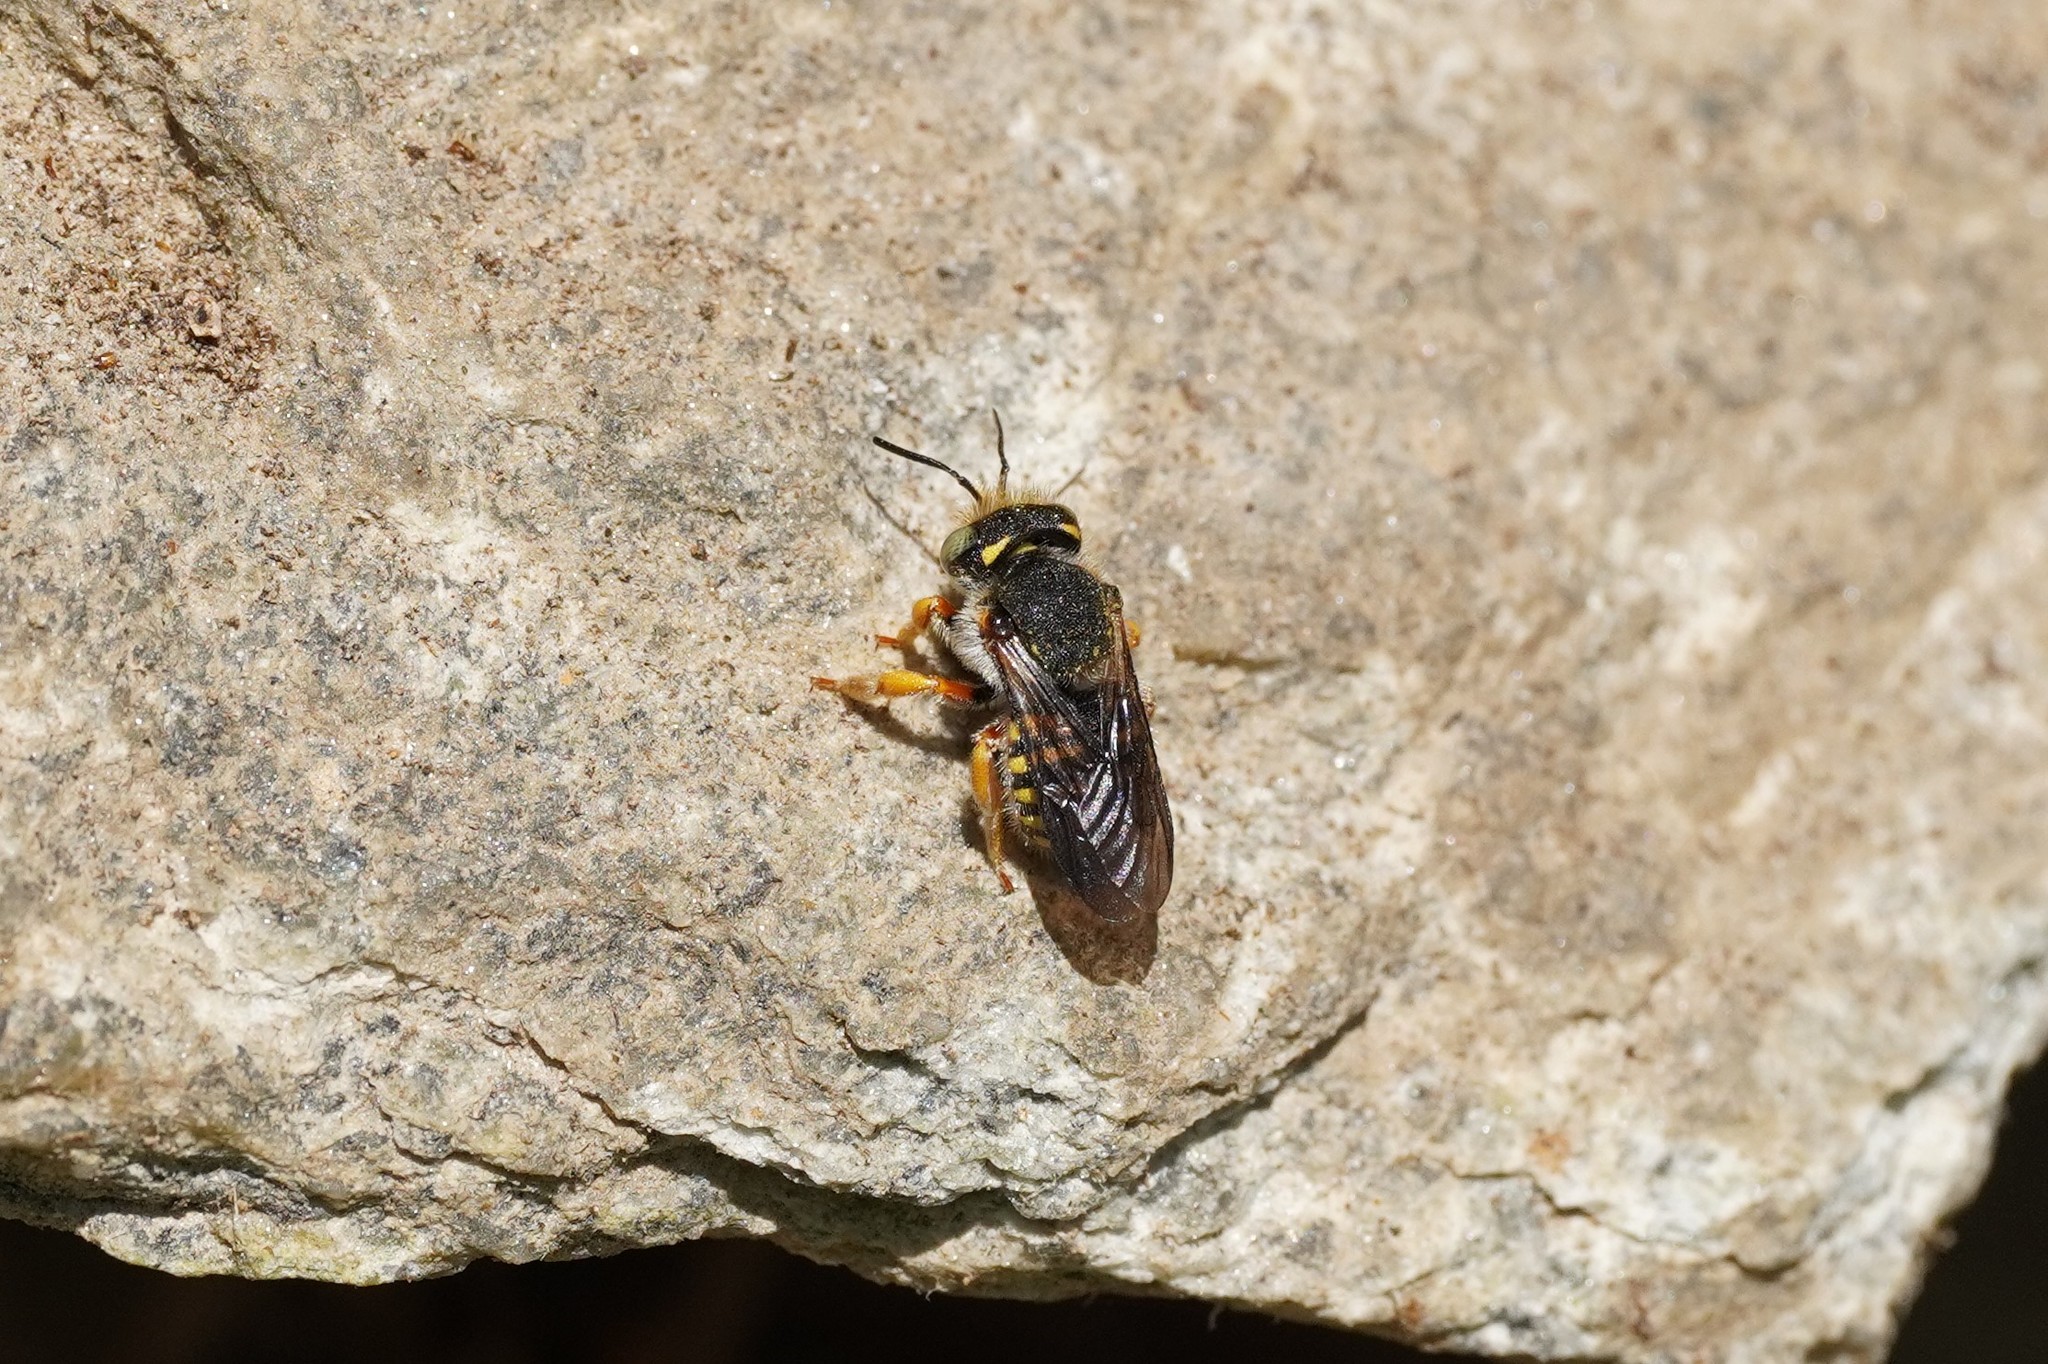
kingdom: Animalia
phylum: Arthropoda
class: Insecta
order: Hymenoptera
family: Megachilidae
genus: Anthidium
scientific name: Anthidium oblongatum
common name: Oblong wool carder bee
